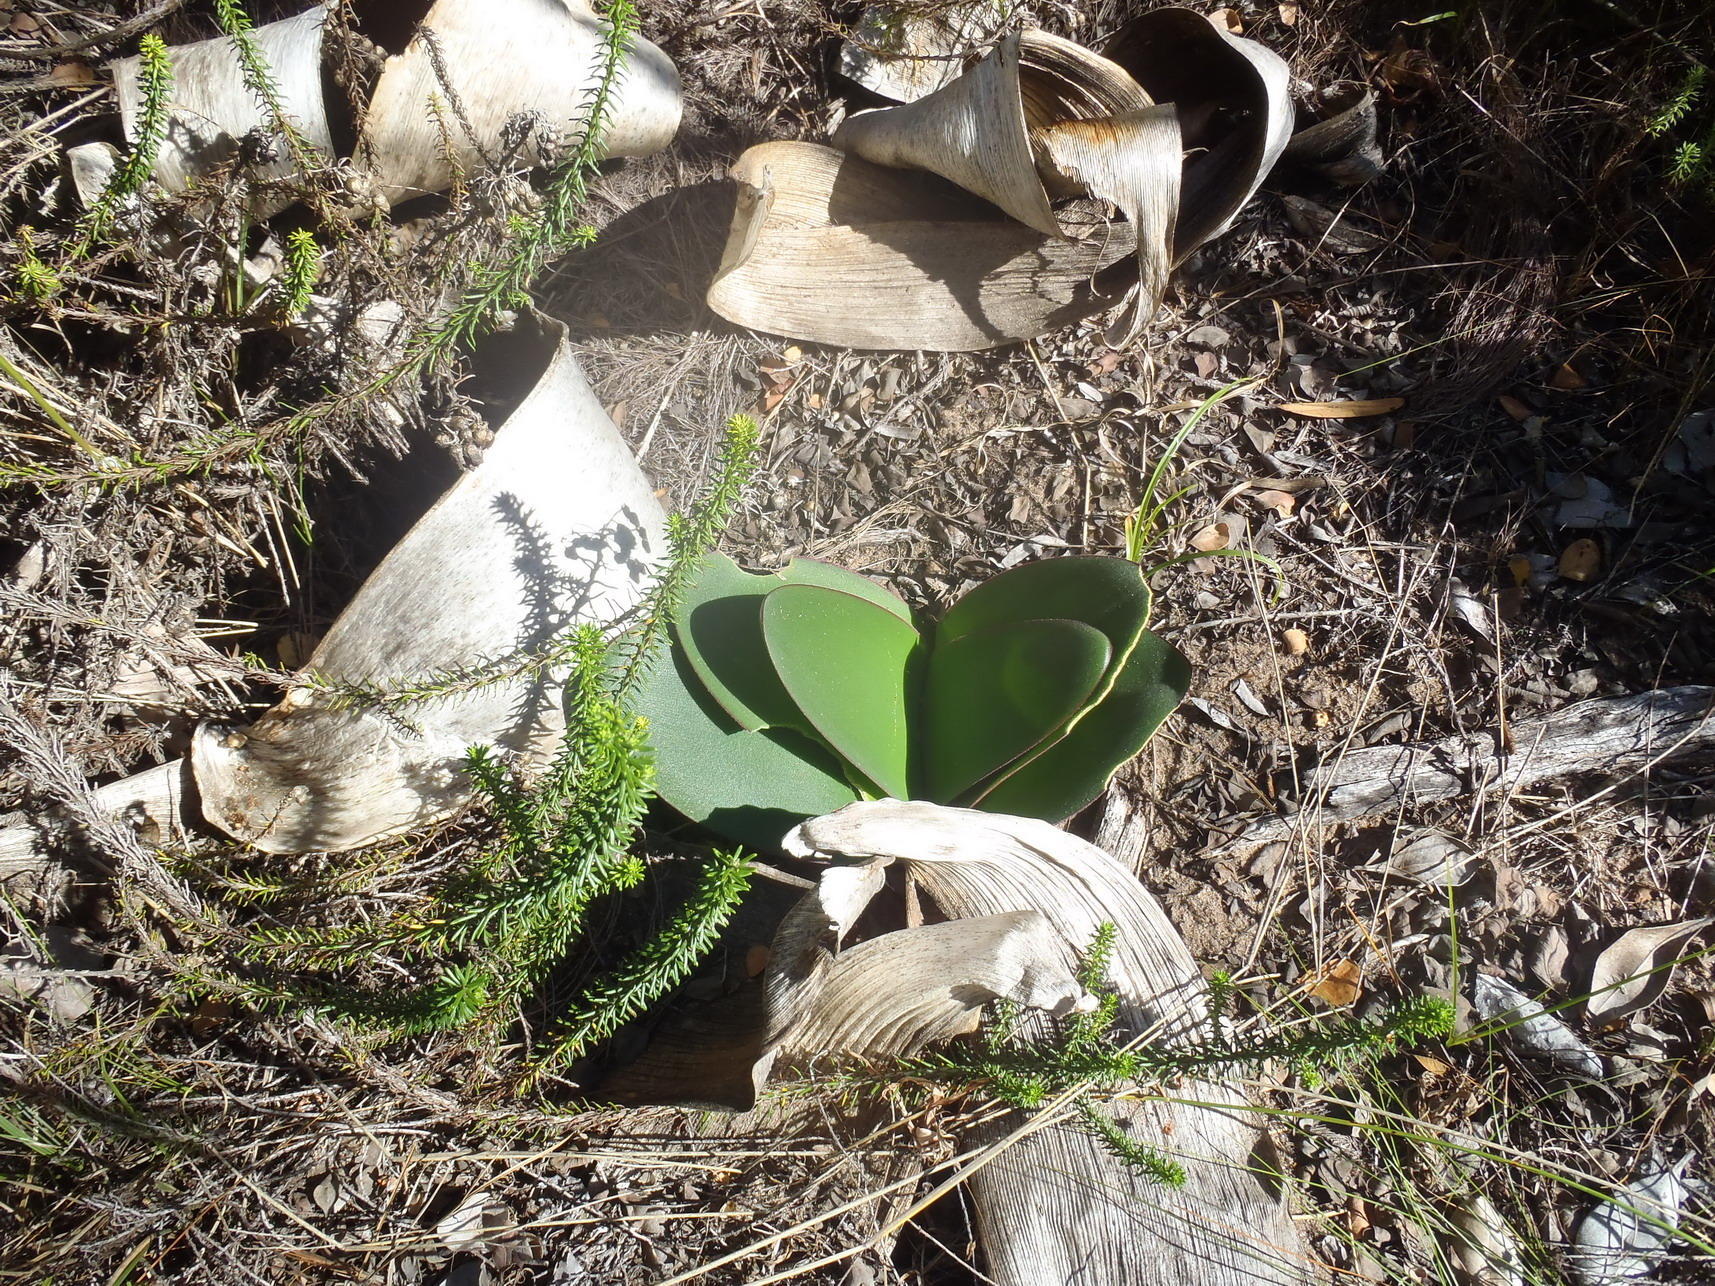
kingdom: Plantae
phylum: Tracheophyta
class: Liliopsida
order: Asparagales
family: Amaryllidaceae
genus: Brunsvigia
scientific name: Brunsvigia orientalis
